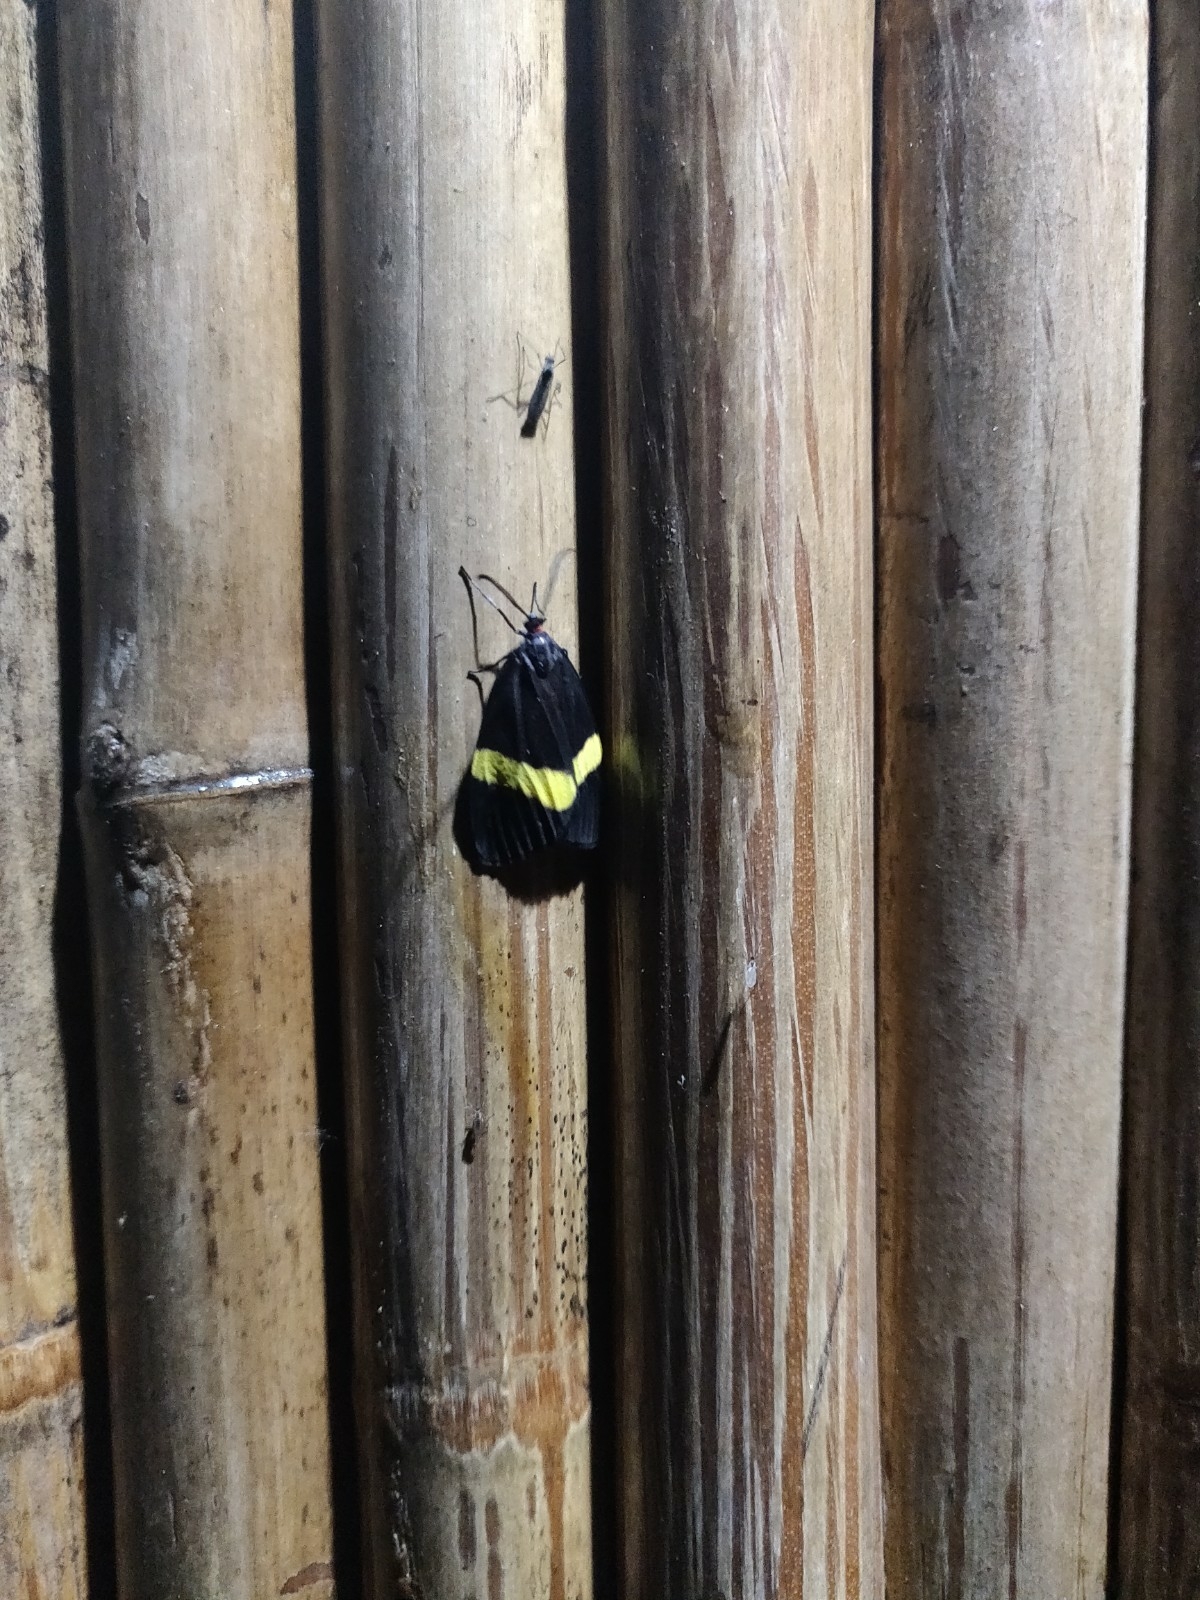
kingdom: Animalia
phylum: Arthropoda
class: Insecta
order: Lepidoptera
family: Zygaenidae
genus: Pidorus
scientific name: Pidorus gemina
